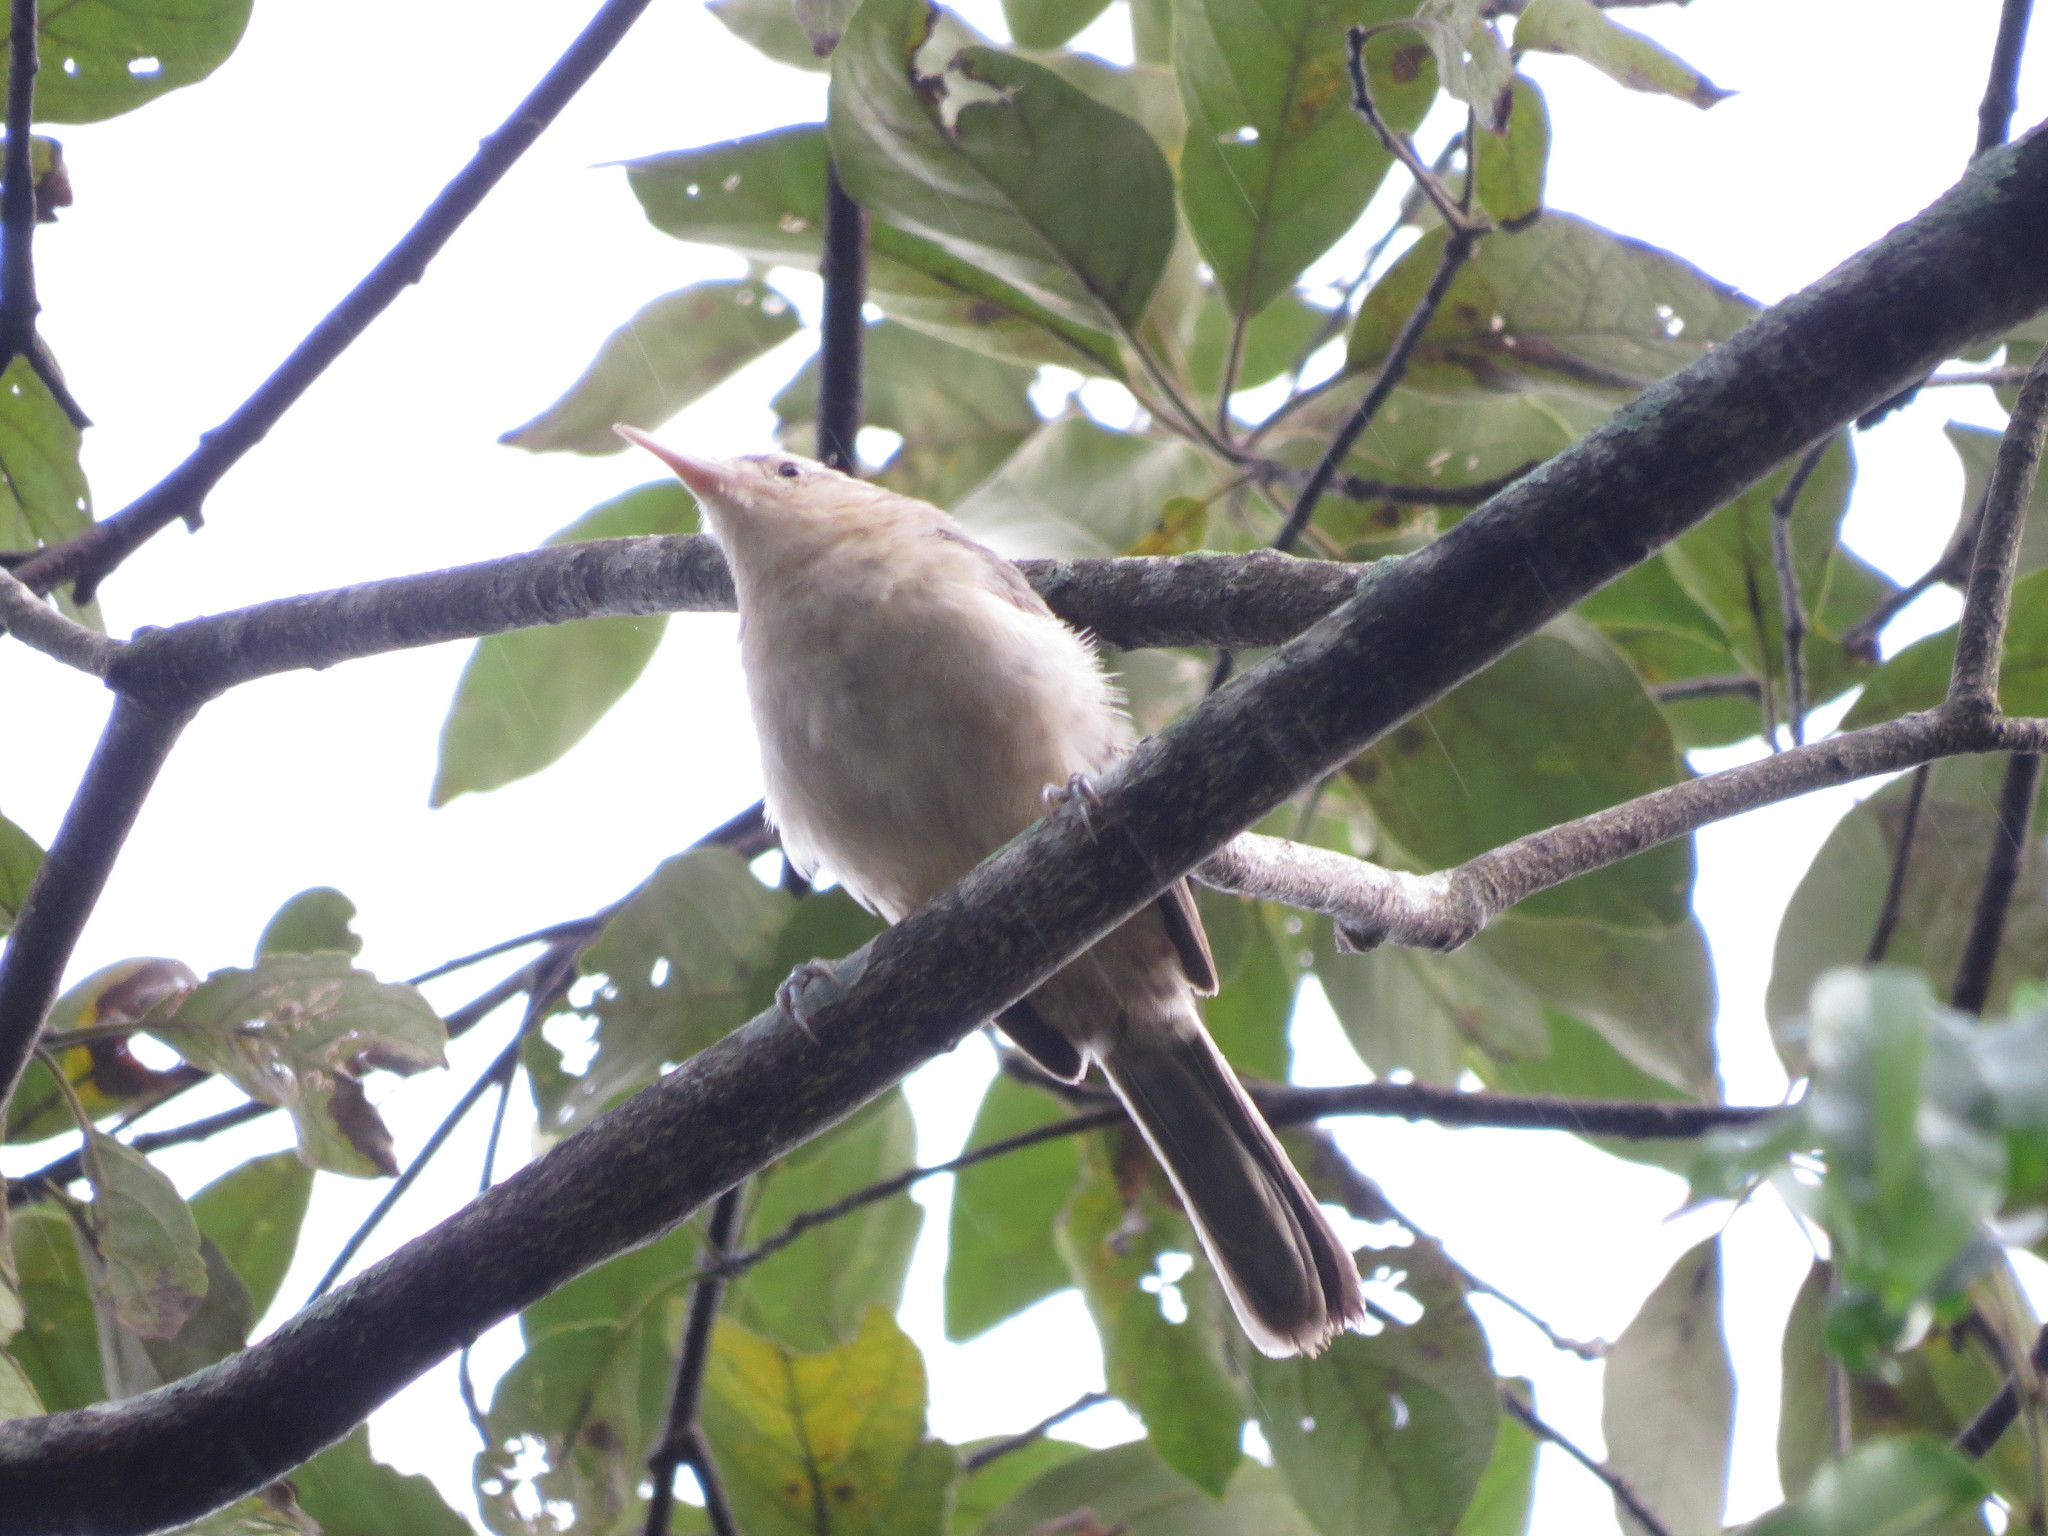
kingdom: Animalia
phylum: Chordata
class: Aves
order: Passeriformes
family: Troglodytidae
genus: Campylorhynchus
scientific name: Campylorhynchus turdinus
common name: Thrush-like wren
